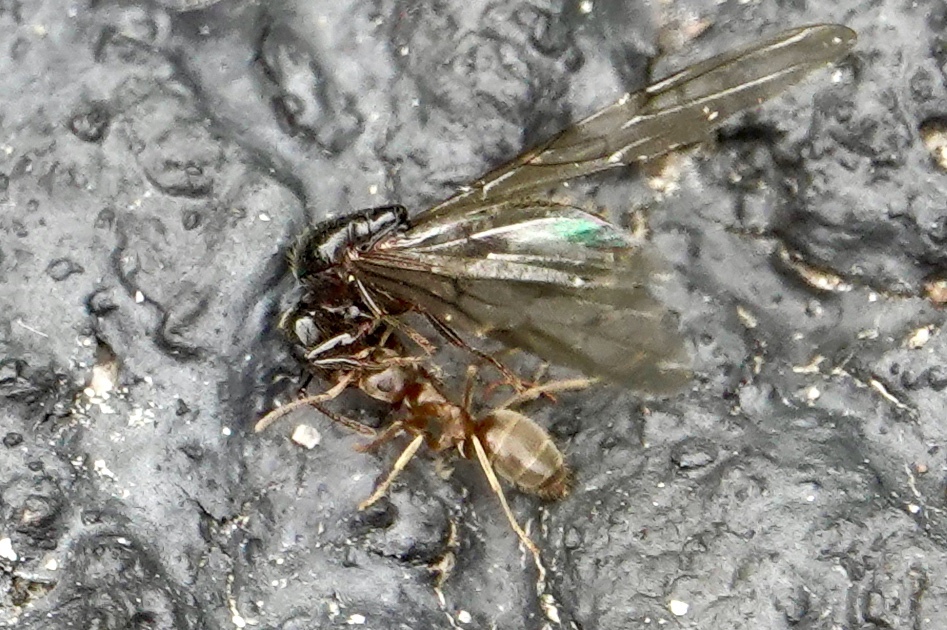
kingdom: Animalia
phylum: Arthropoda
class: Insecta
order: Hymenoptera
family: Formicidae
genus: Lasius
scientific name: Lasius neoniger
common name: Turfgrass ant
